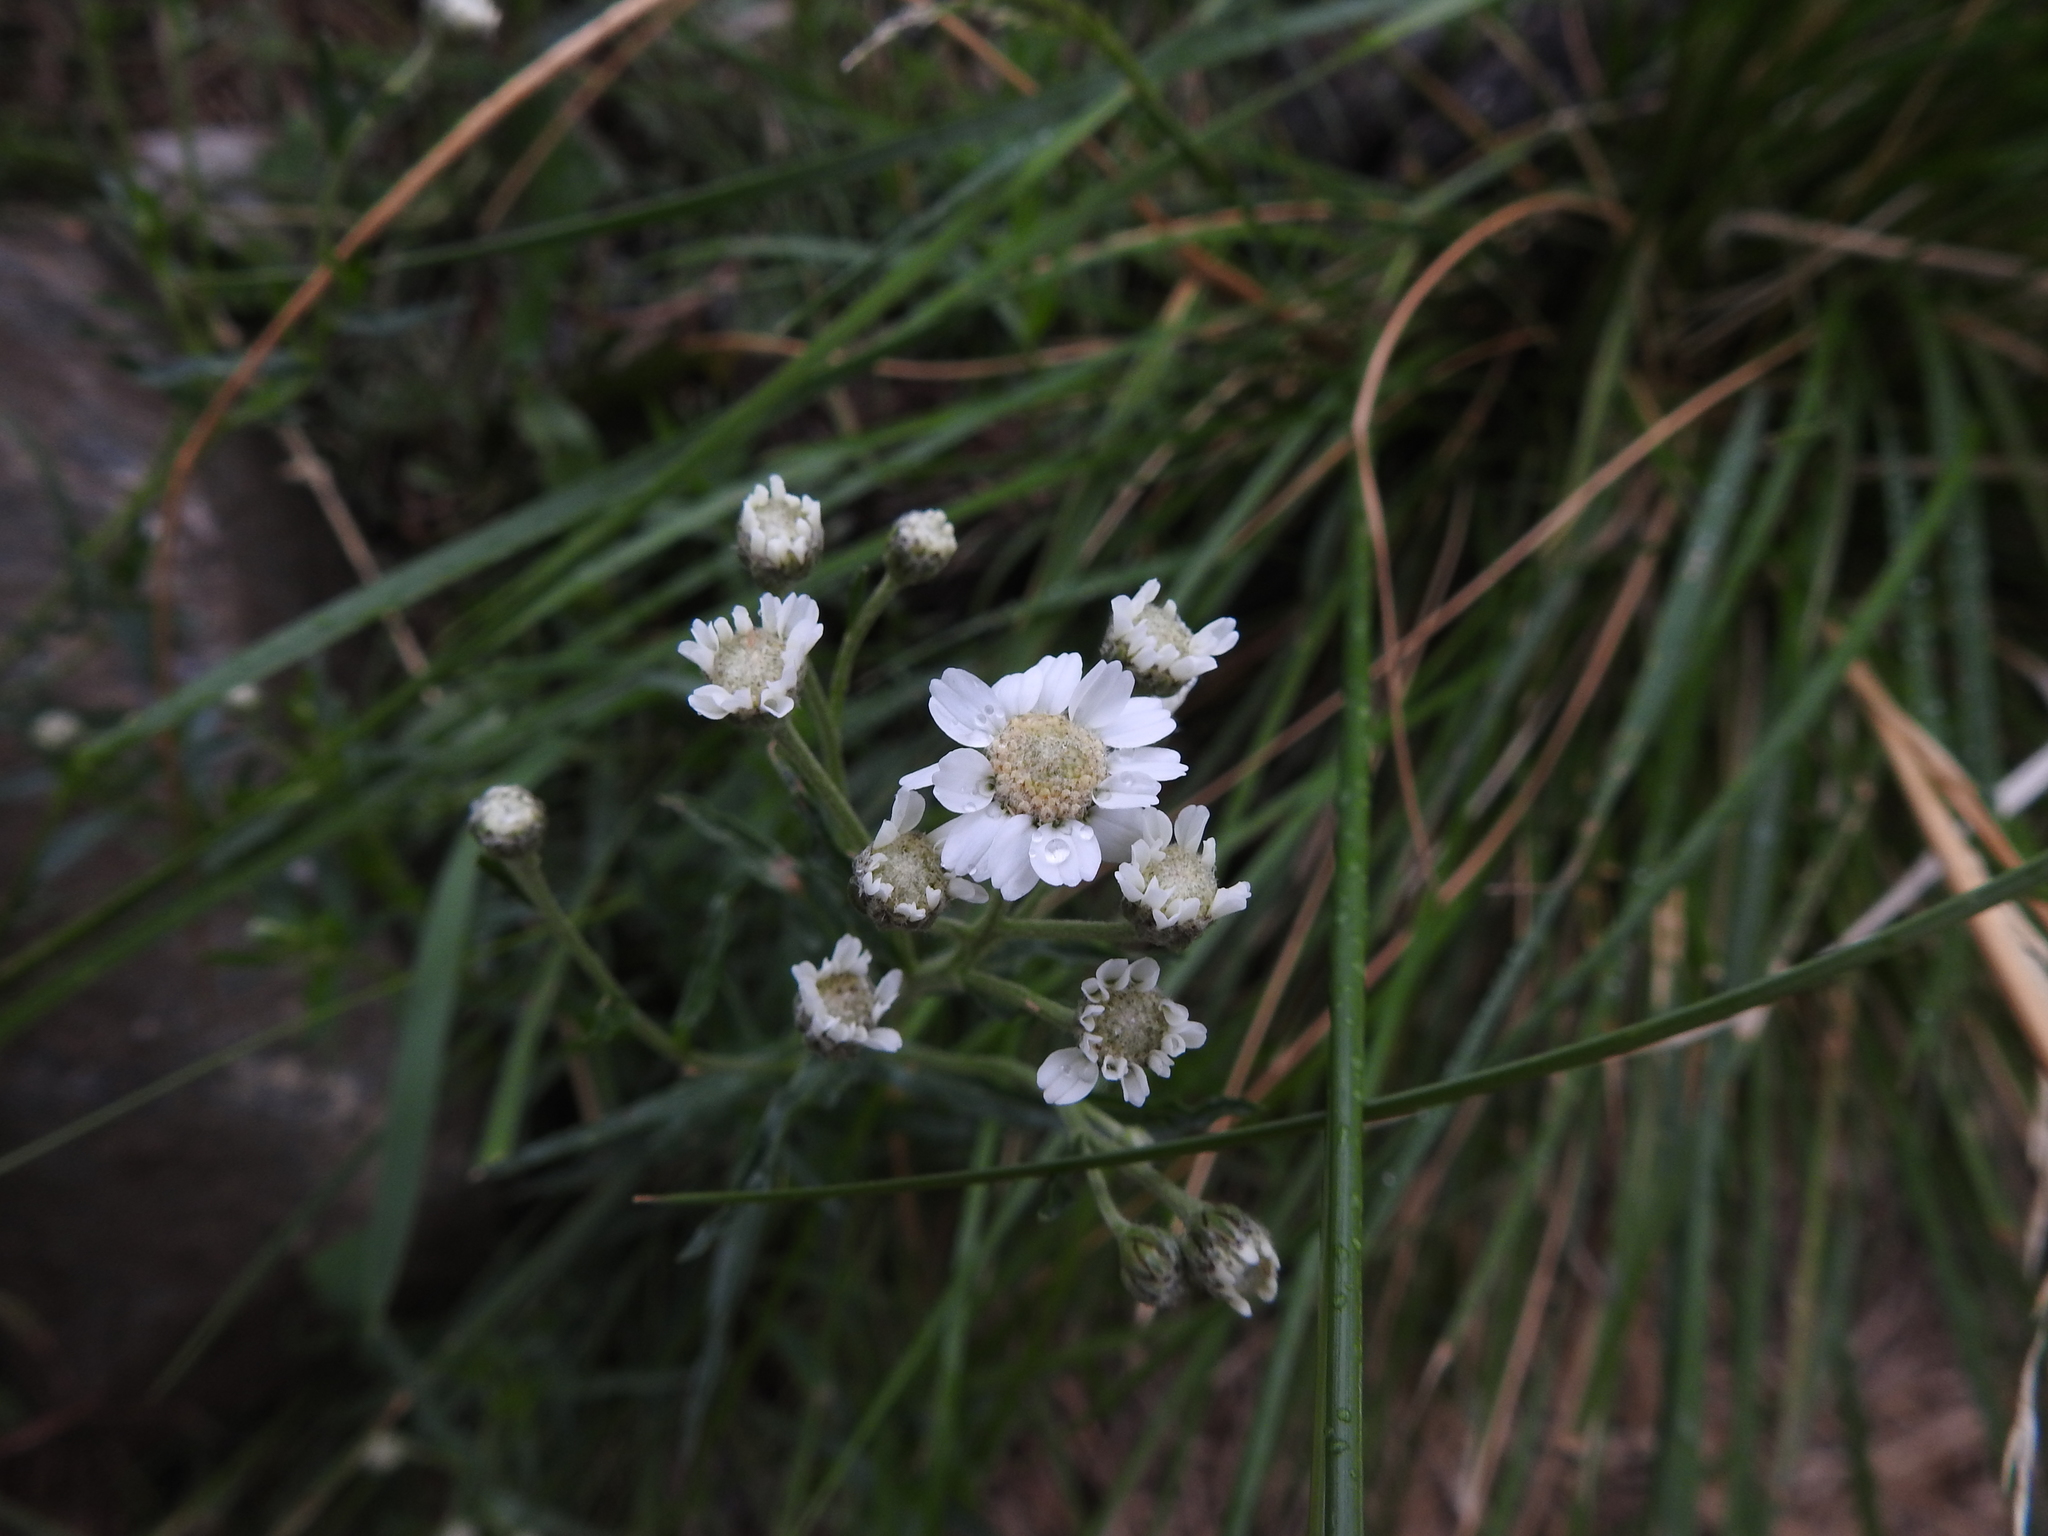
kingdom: Plantae
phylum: Tracheophyta
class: Magnoliopsida
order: Asterales
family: Asteraceae
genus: Achillea
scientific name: Achillea ptarmica
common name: Sneezeweed
